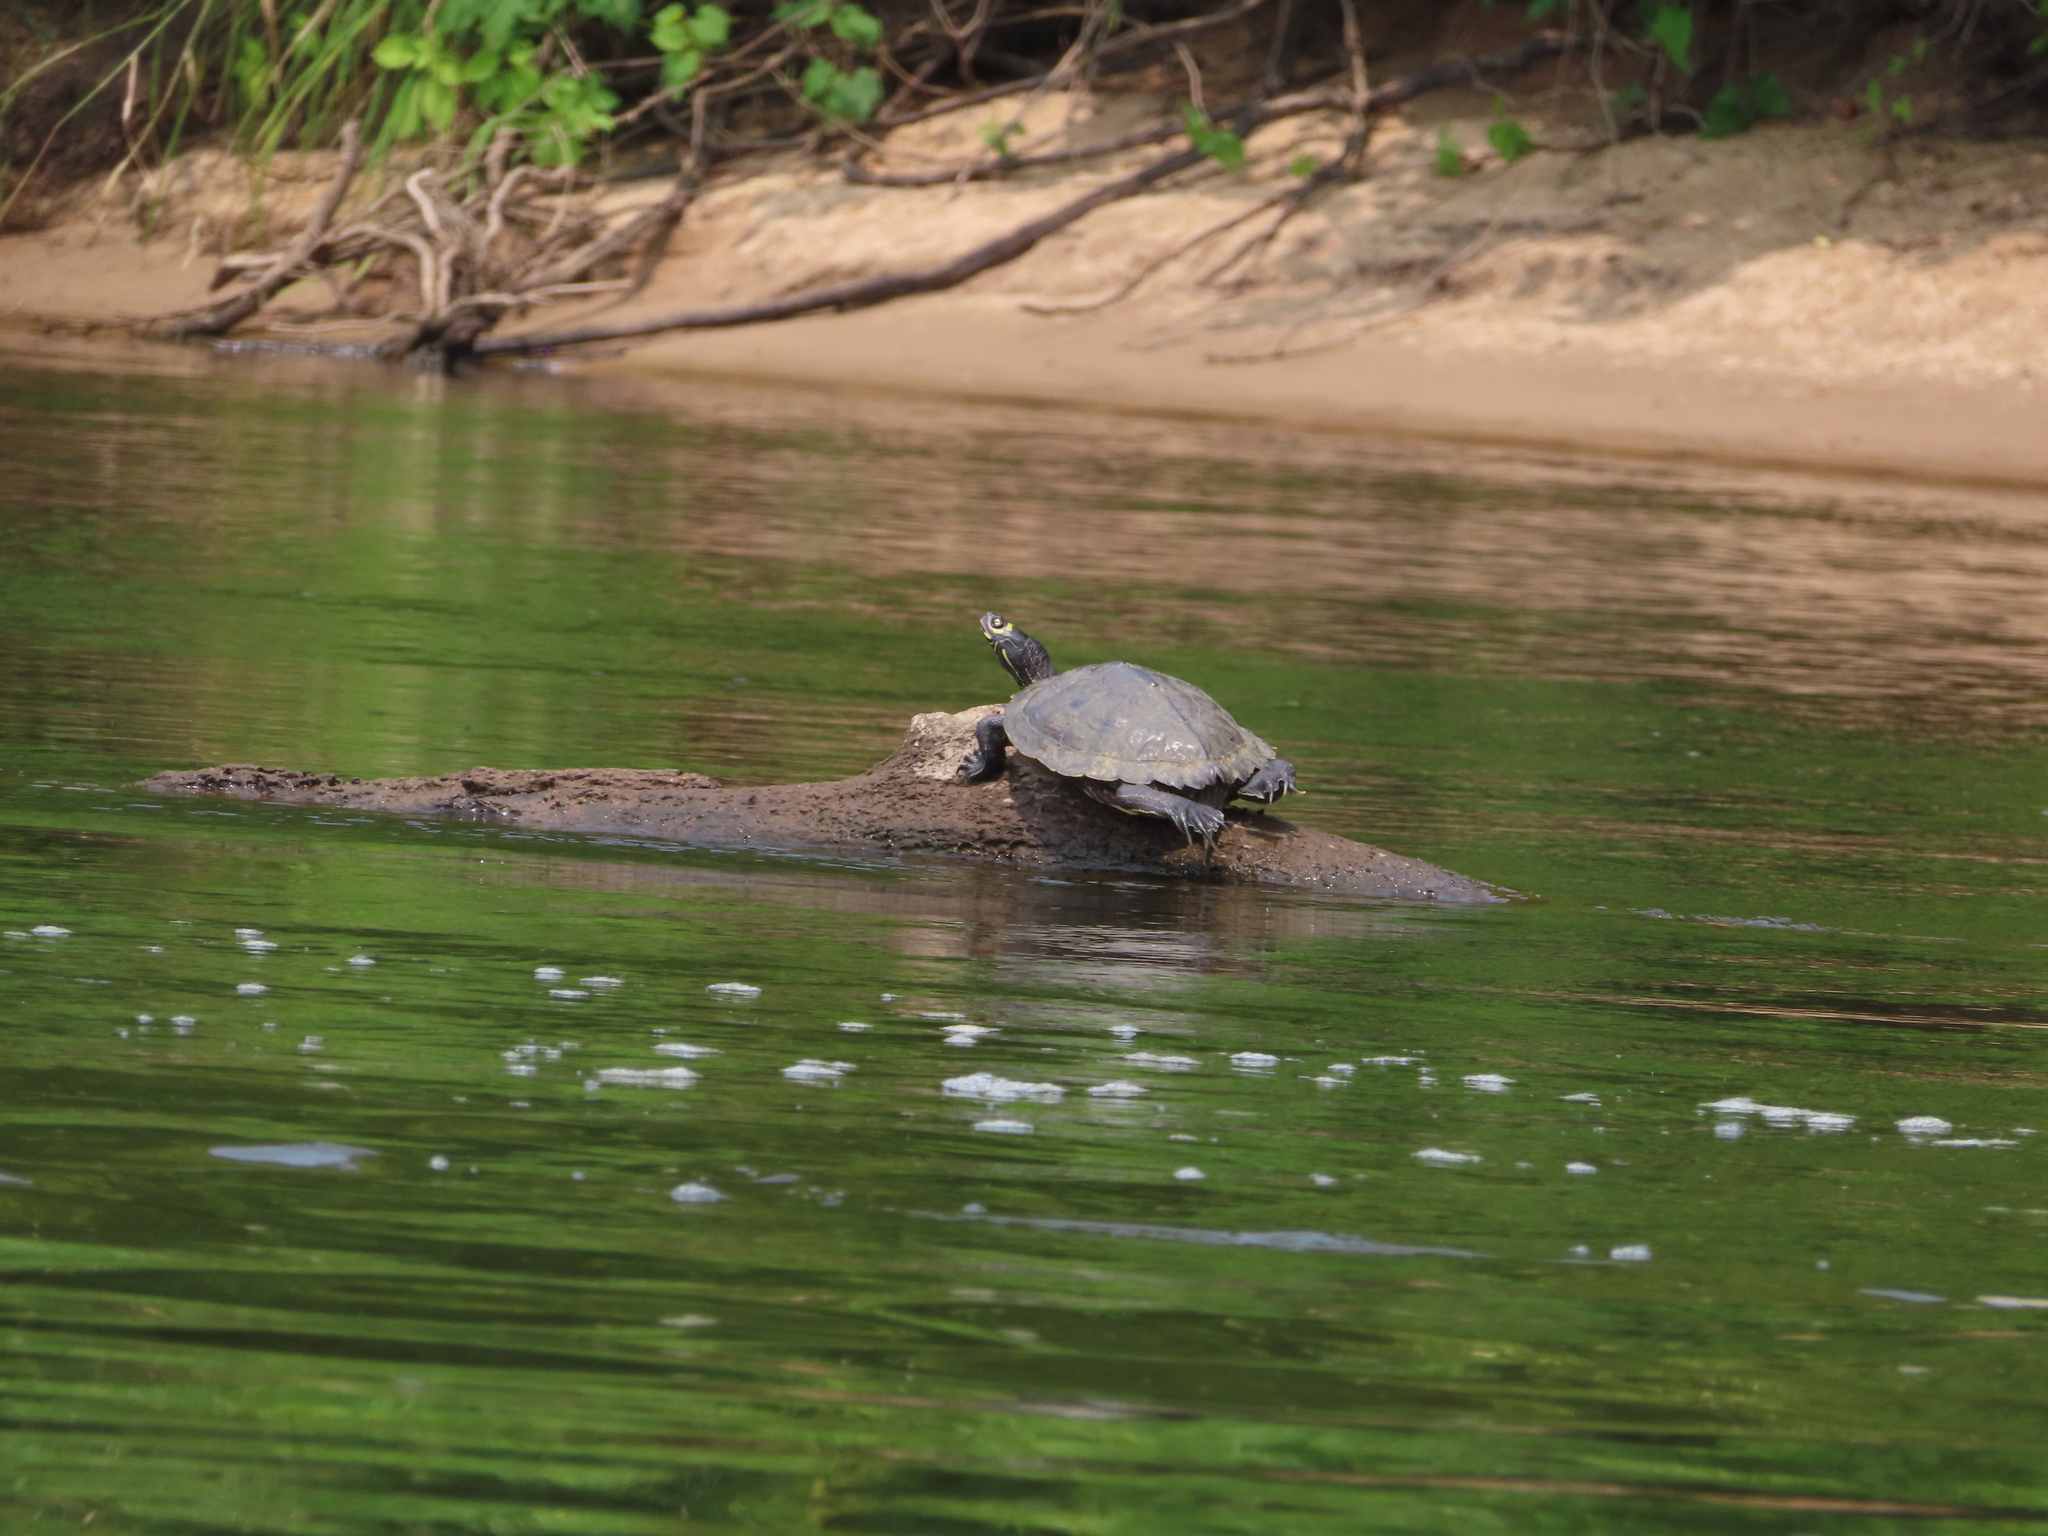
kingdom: Animalia
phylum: Chordata
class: Testudines
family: Emydidae
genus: Graptemys
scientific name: Graptemys ouachitensis
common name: Ouachita map turtle
